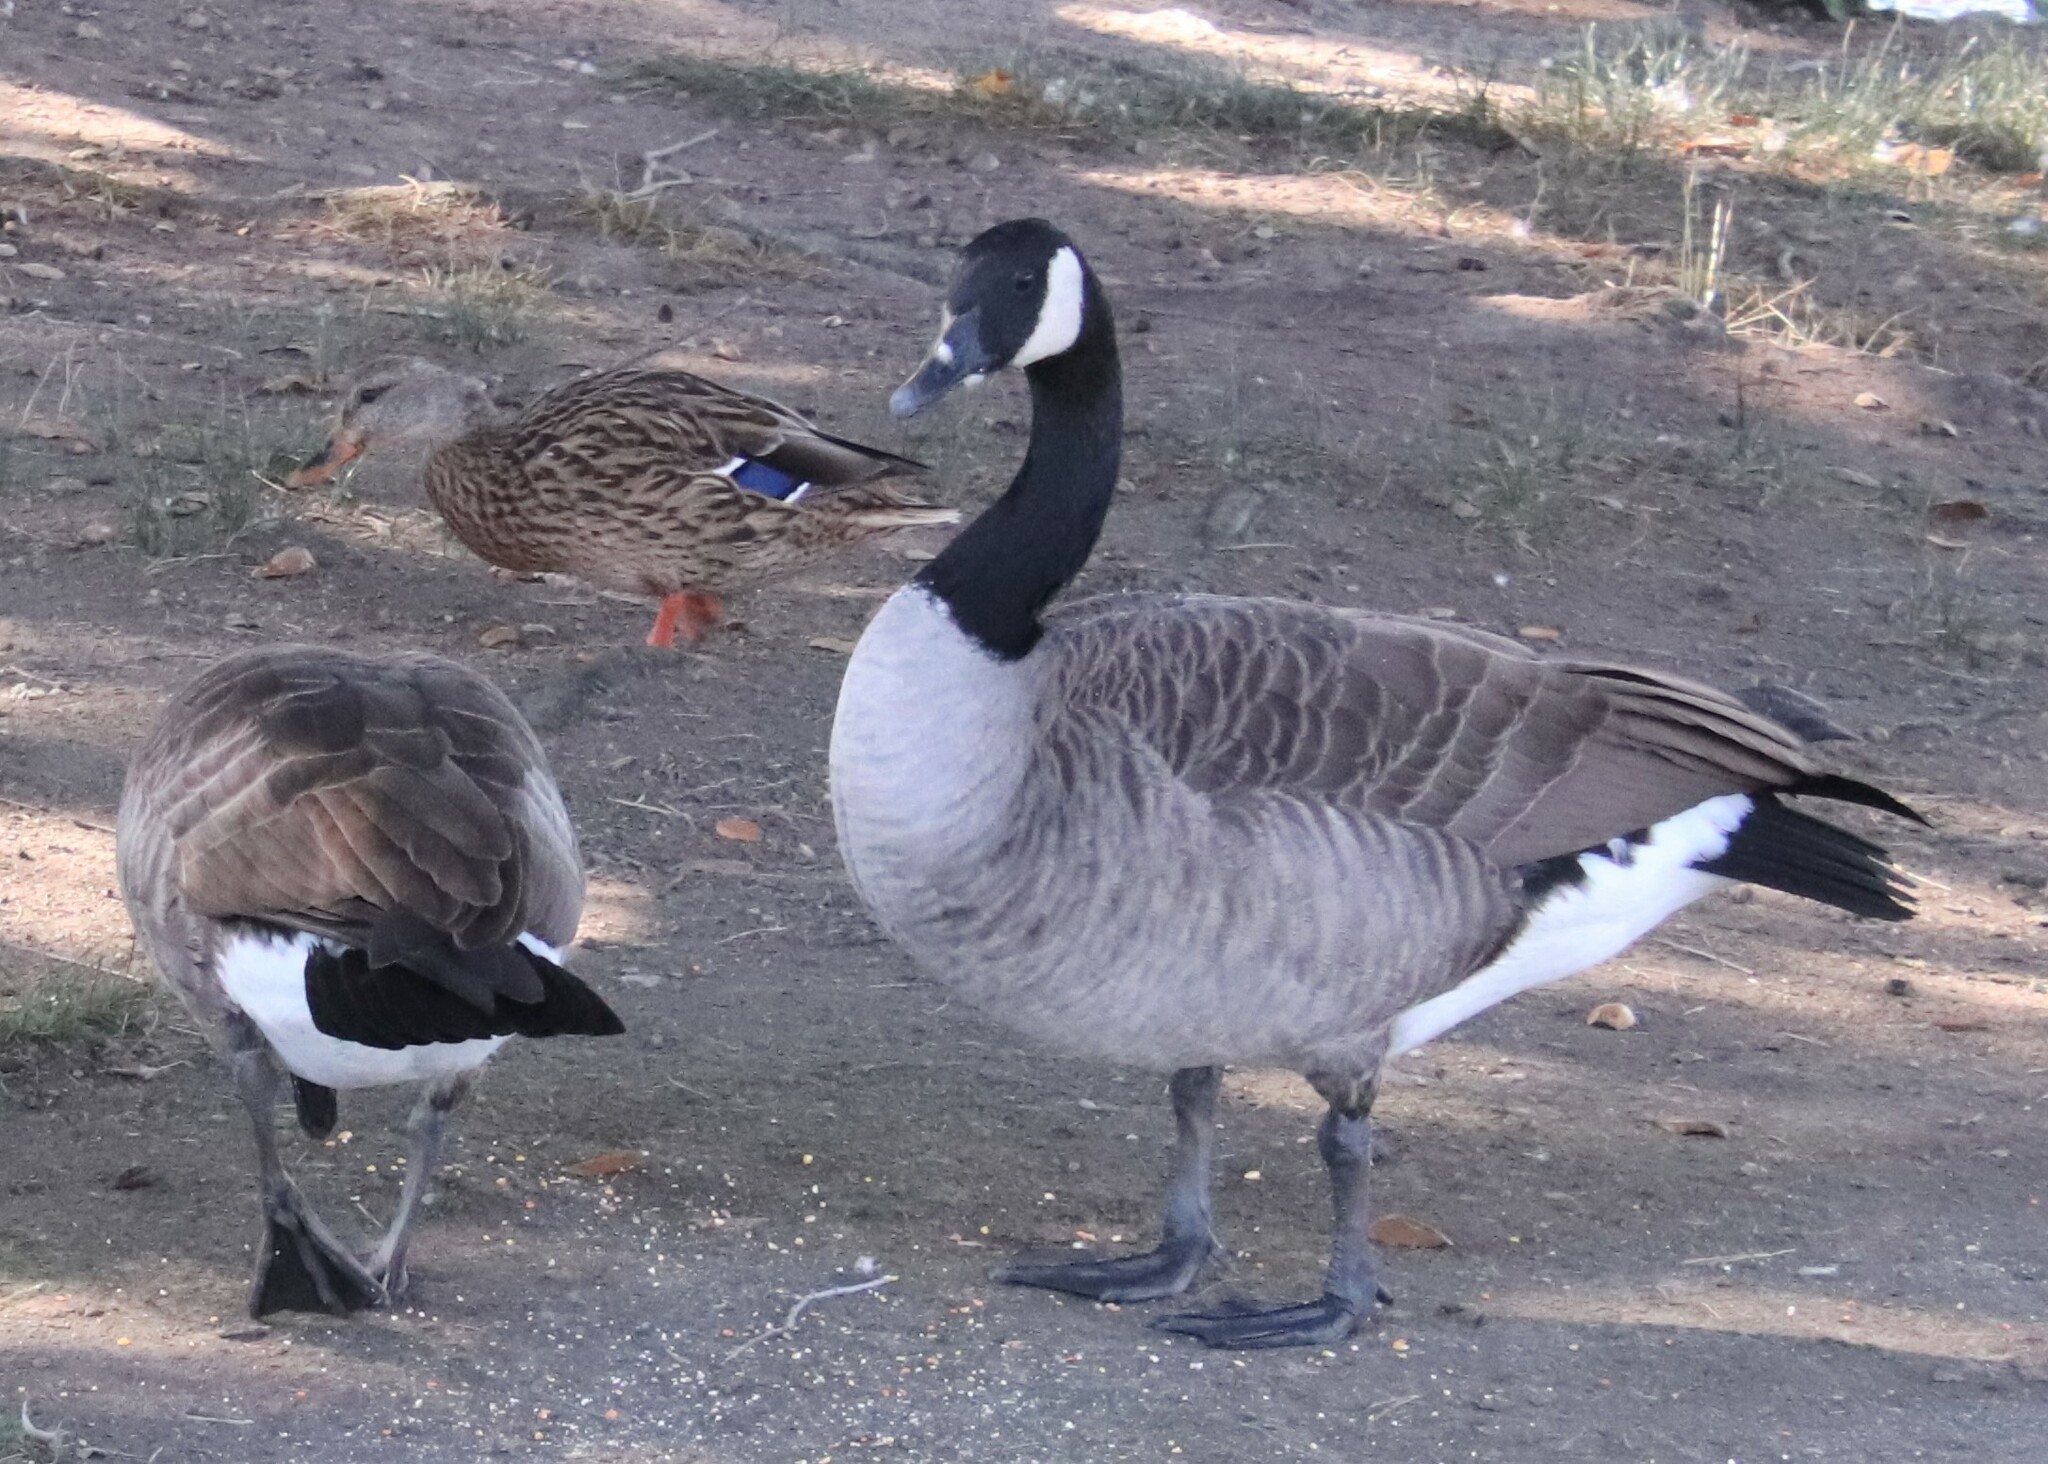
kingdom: Animalia
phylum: Chordata
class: Aves
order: Anseriformes
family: Anatidae
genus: Branta
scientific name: Branta canadensis
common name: Canada goose
